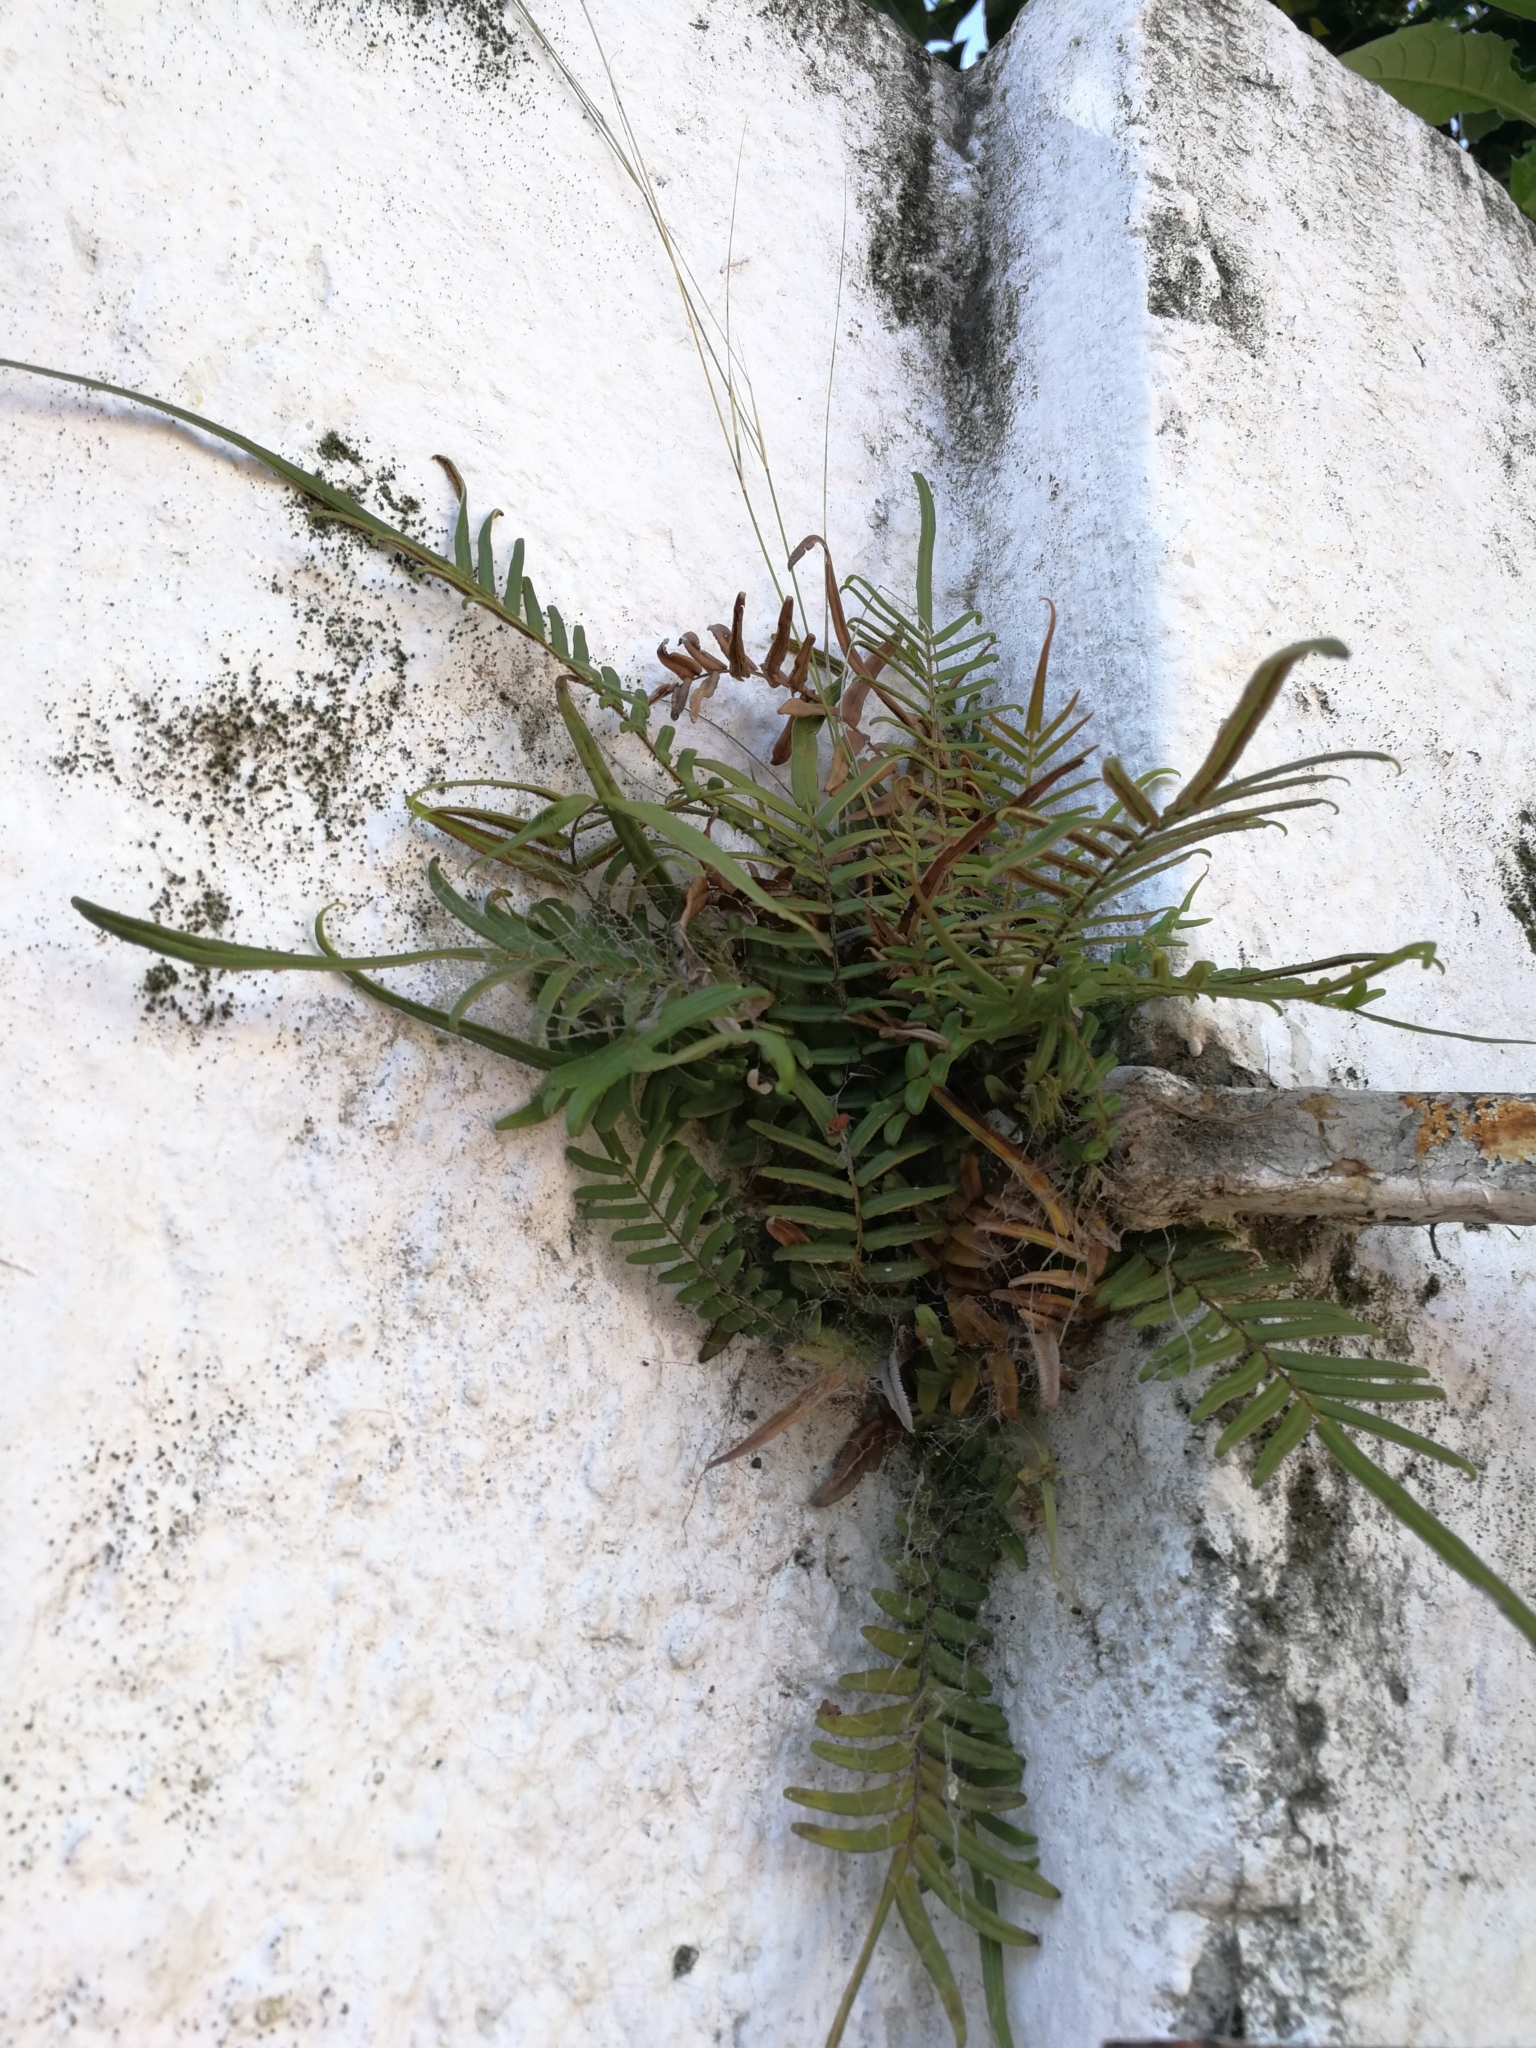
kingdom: Plantae
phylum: Tracheophyta
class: Polypodiopsida
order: Polypodiales
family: Pteridaceae
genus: Pteris
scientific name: Pteris vittata
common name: Ladder brake
